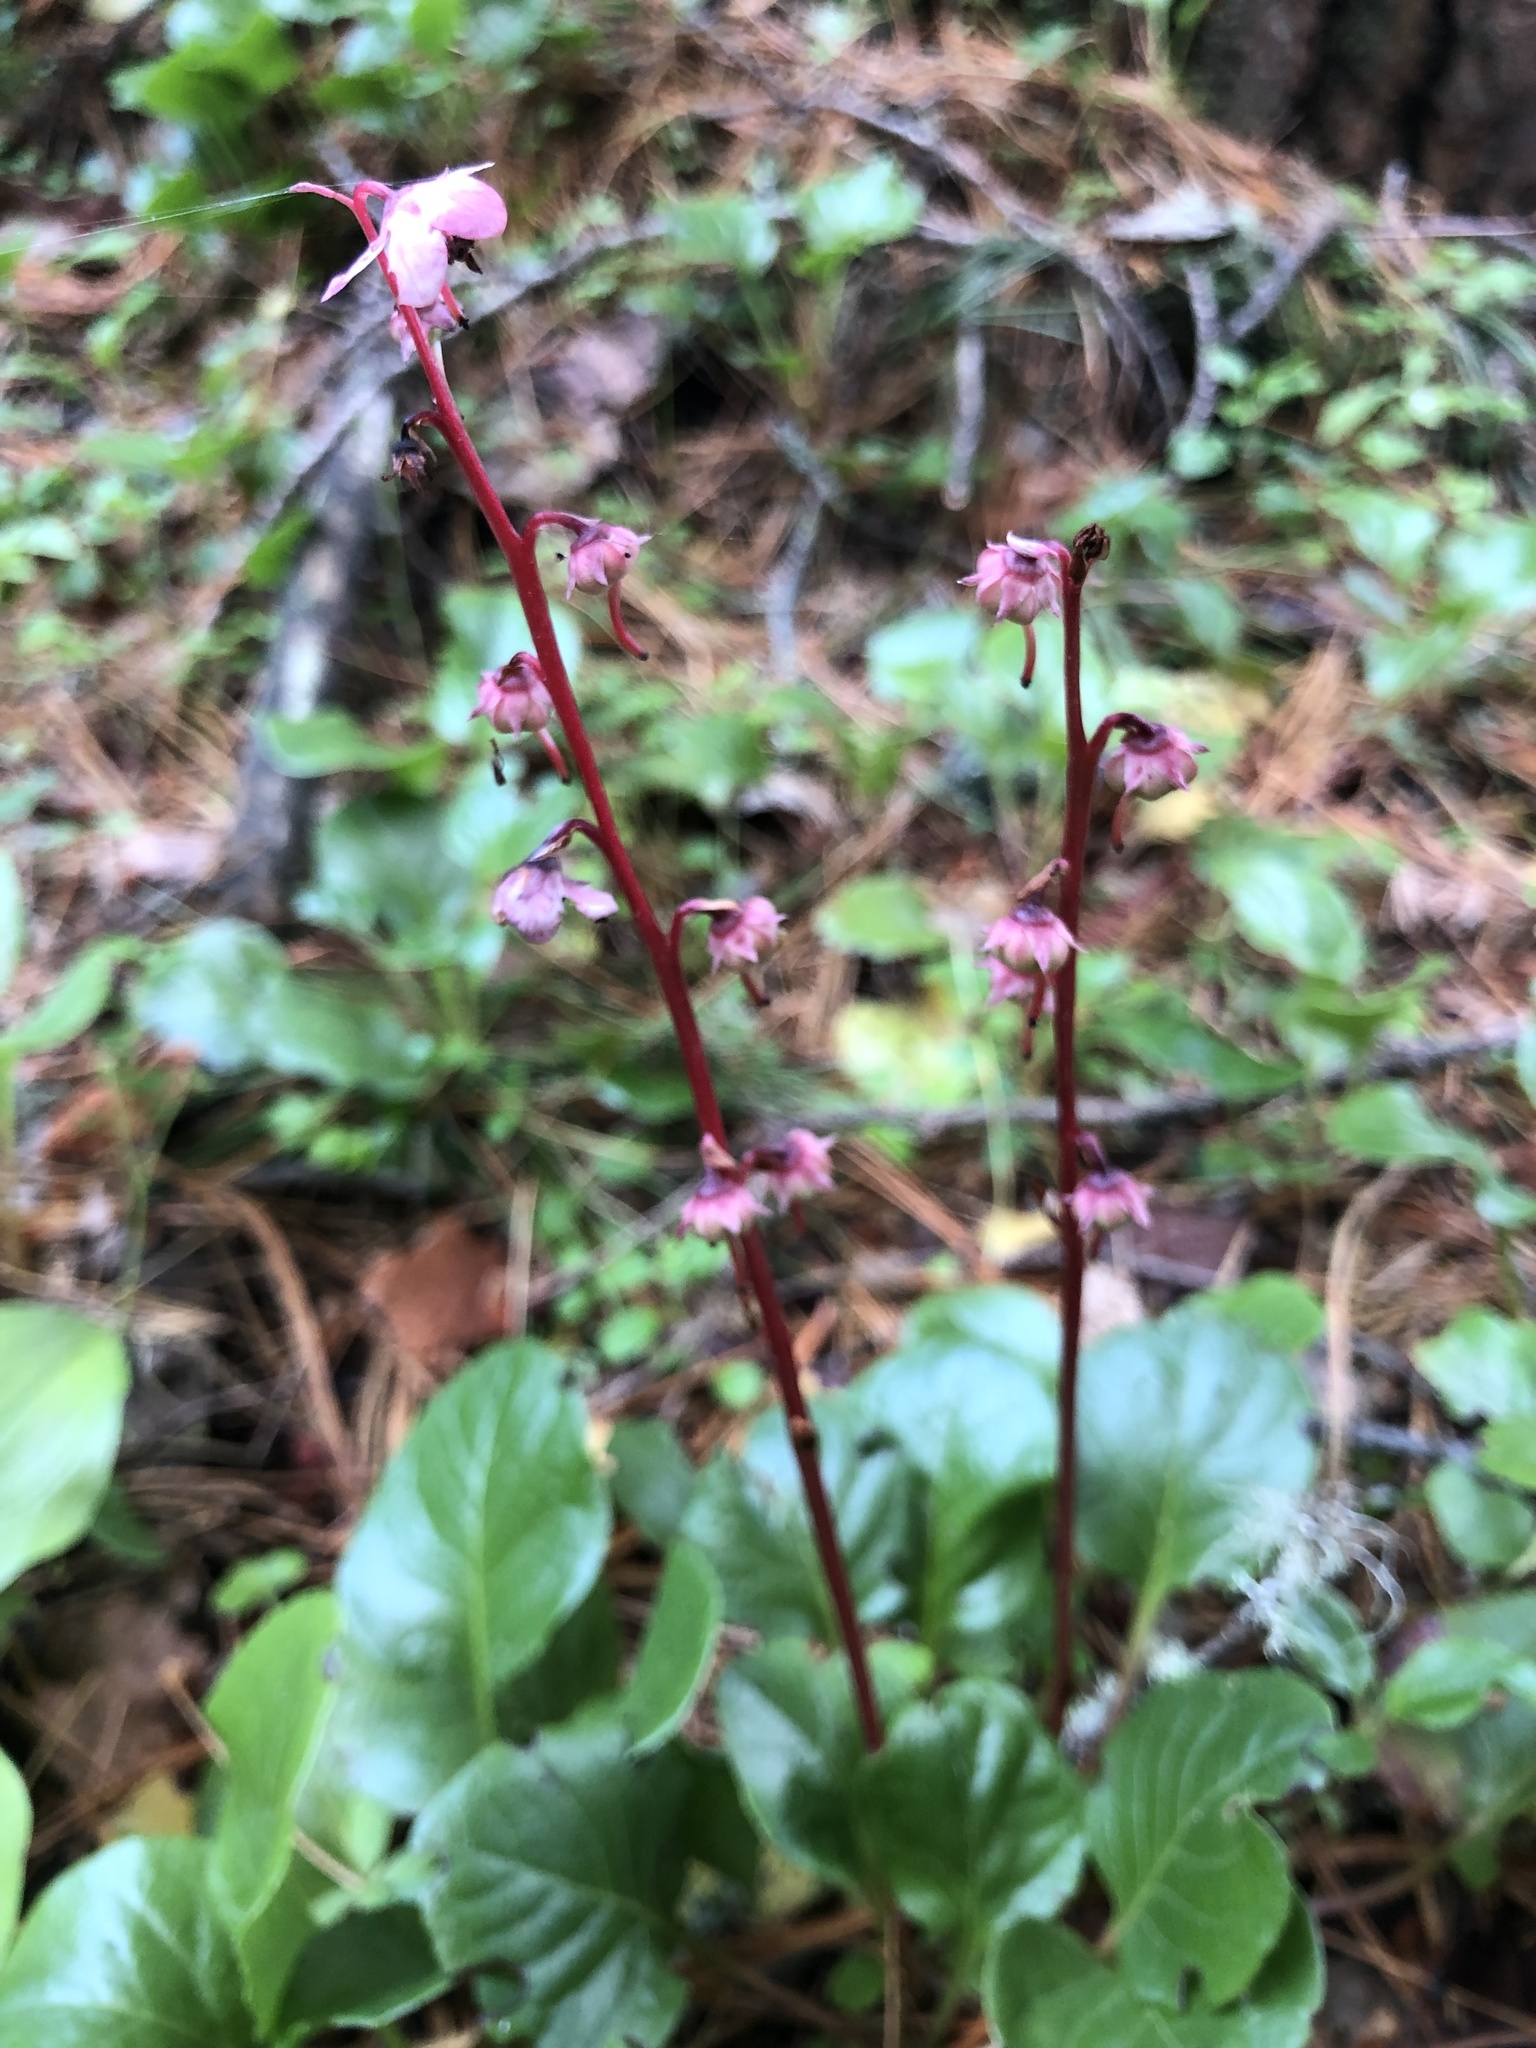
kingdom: Plantae
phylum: Tracheophyta
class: Magnoliopsida
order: Ericales
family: Ericaceae
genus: Pyrola
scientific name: Pyrola asarifolia
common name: Bog wintergreen
